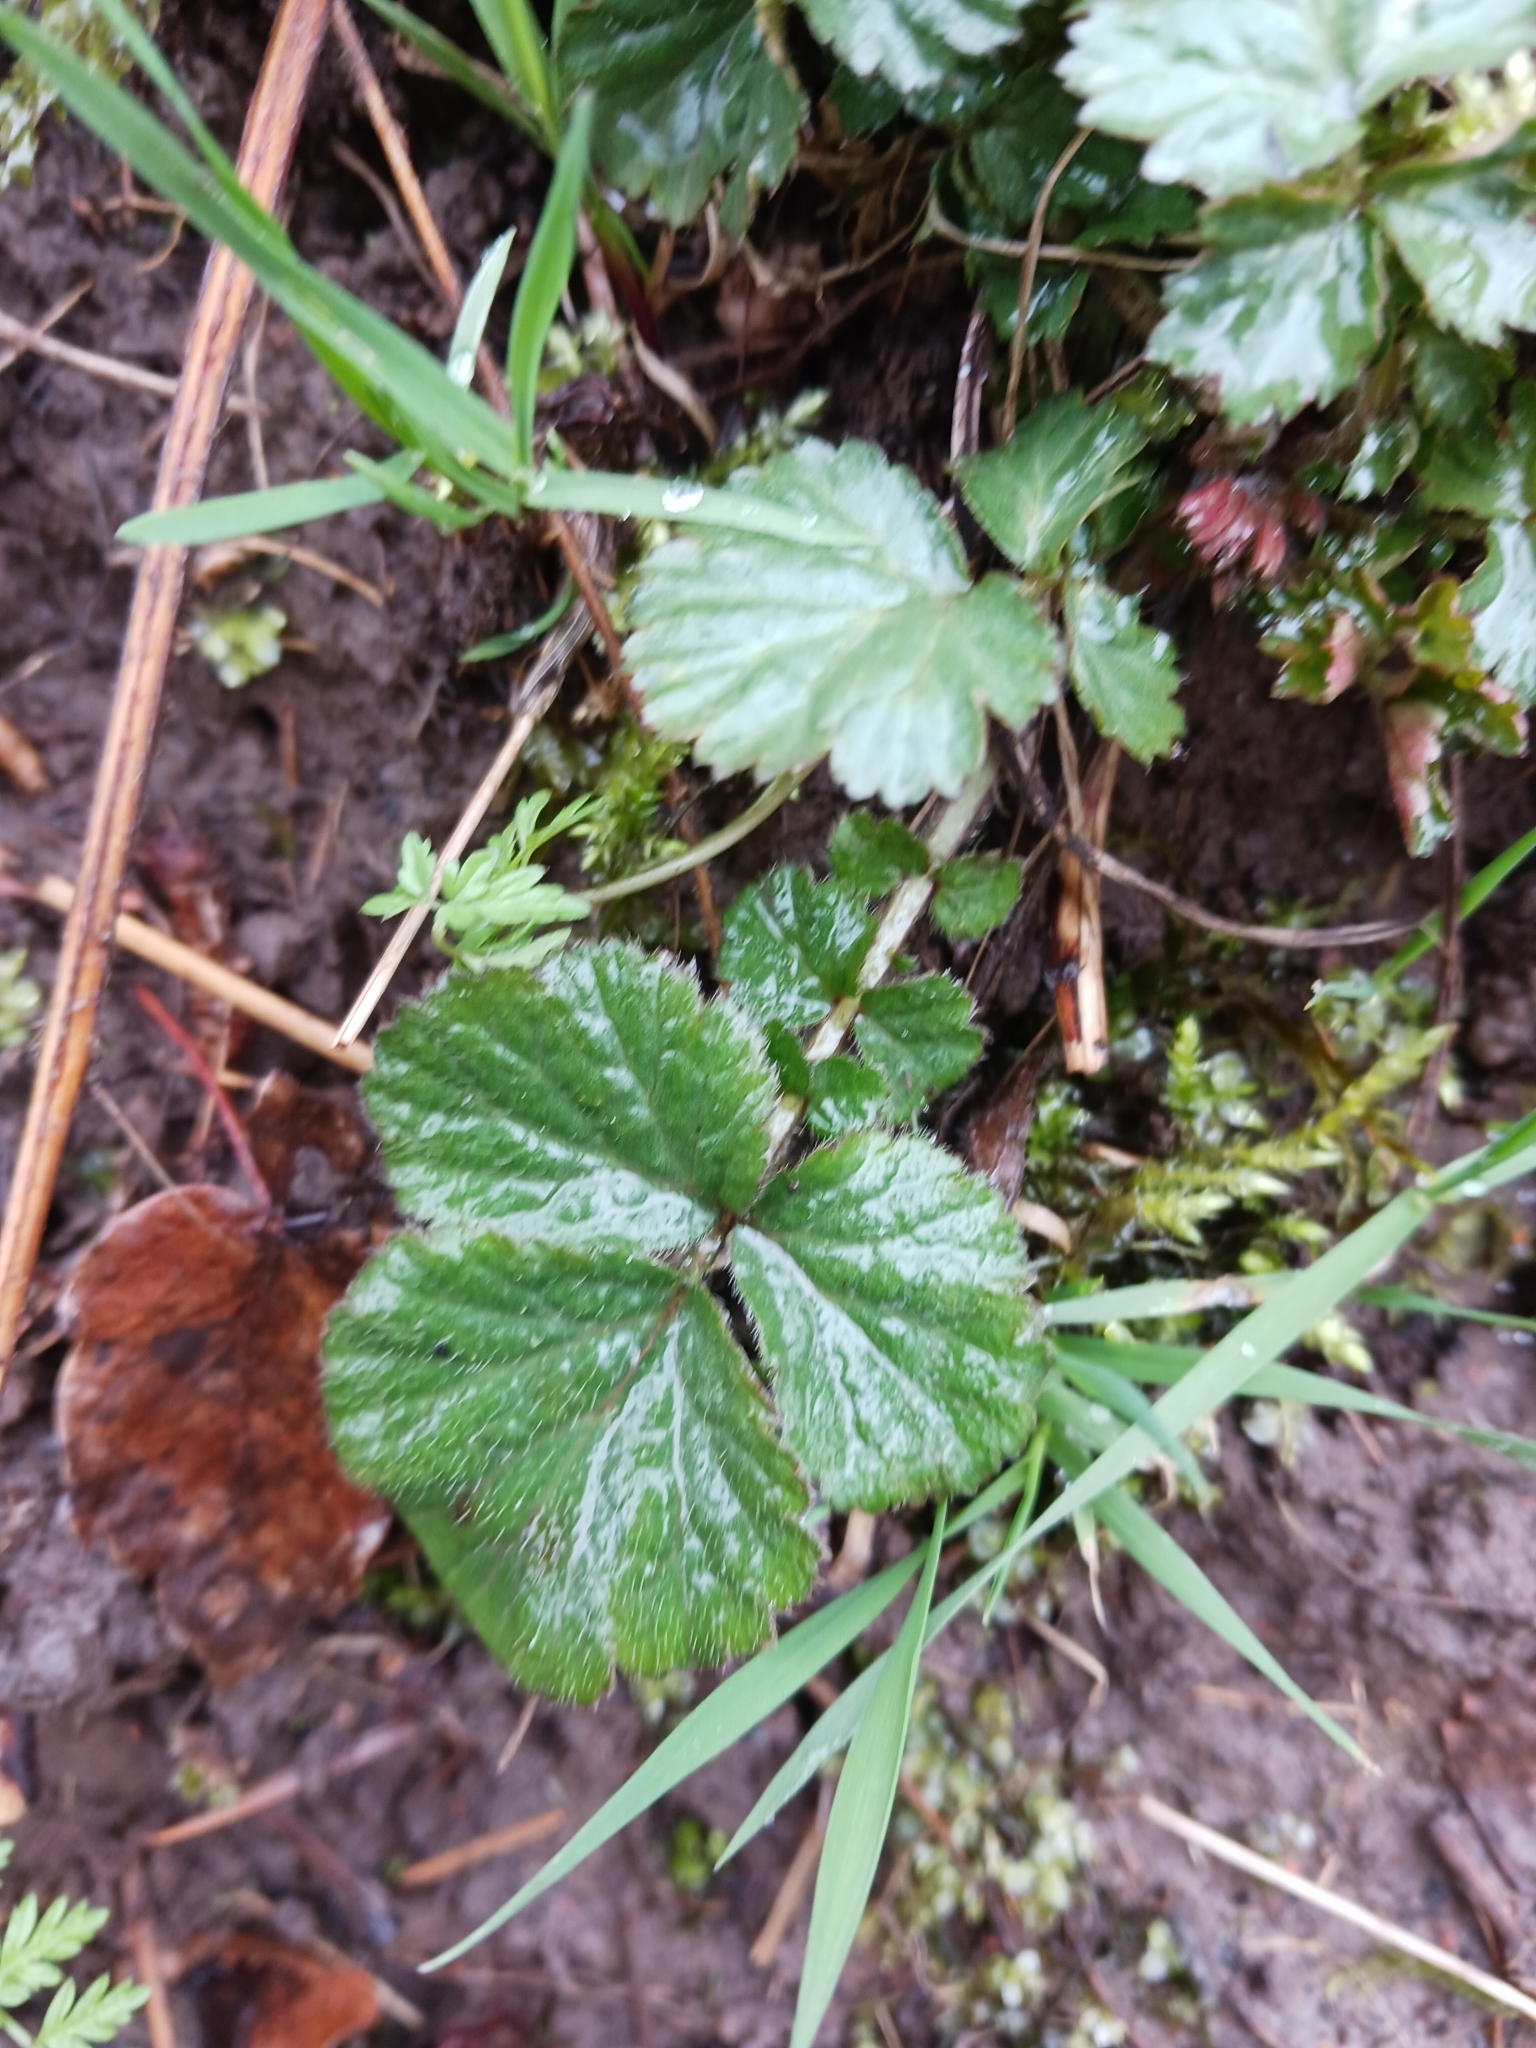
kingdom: Plantae
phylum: Tracheophyta
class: Magnoliopsida
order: Rosales
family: Rosaceae
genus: Geum
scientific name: Geum urbanum
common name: Wood avens
